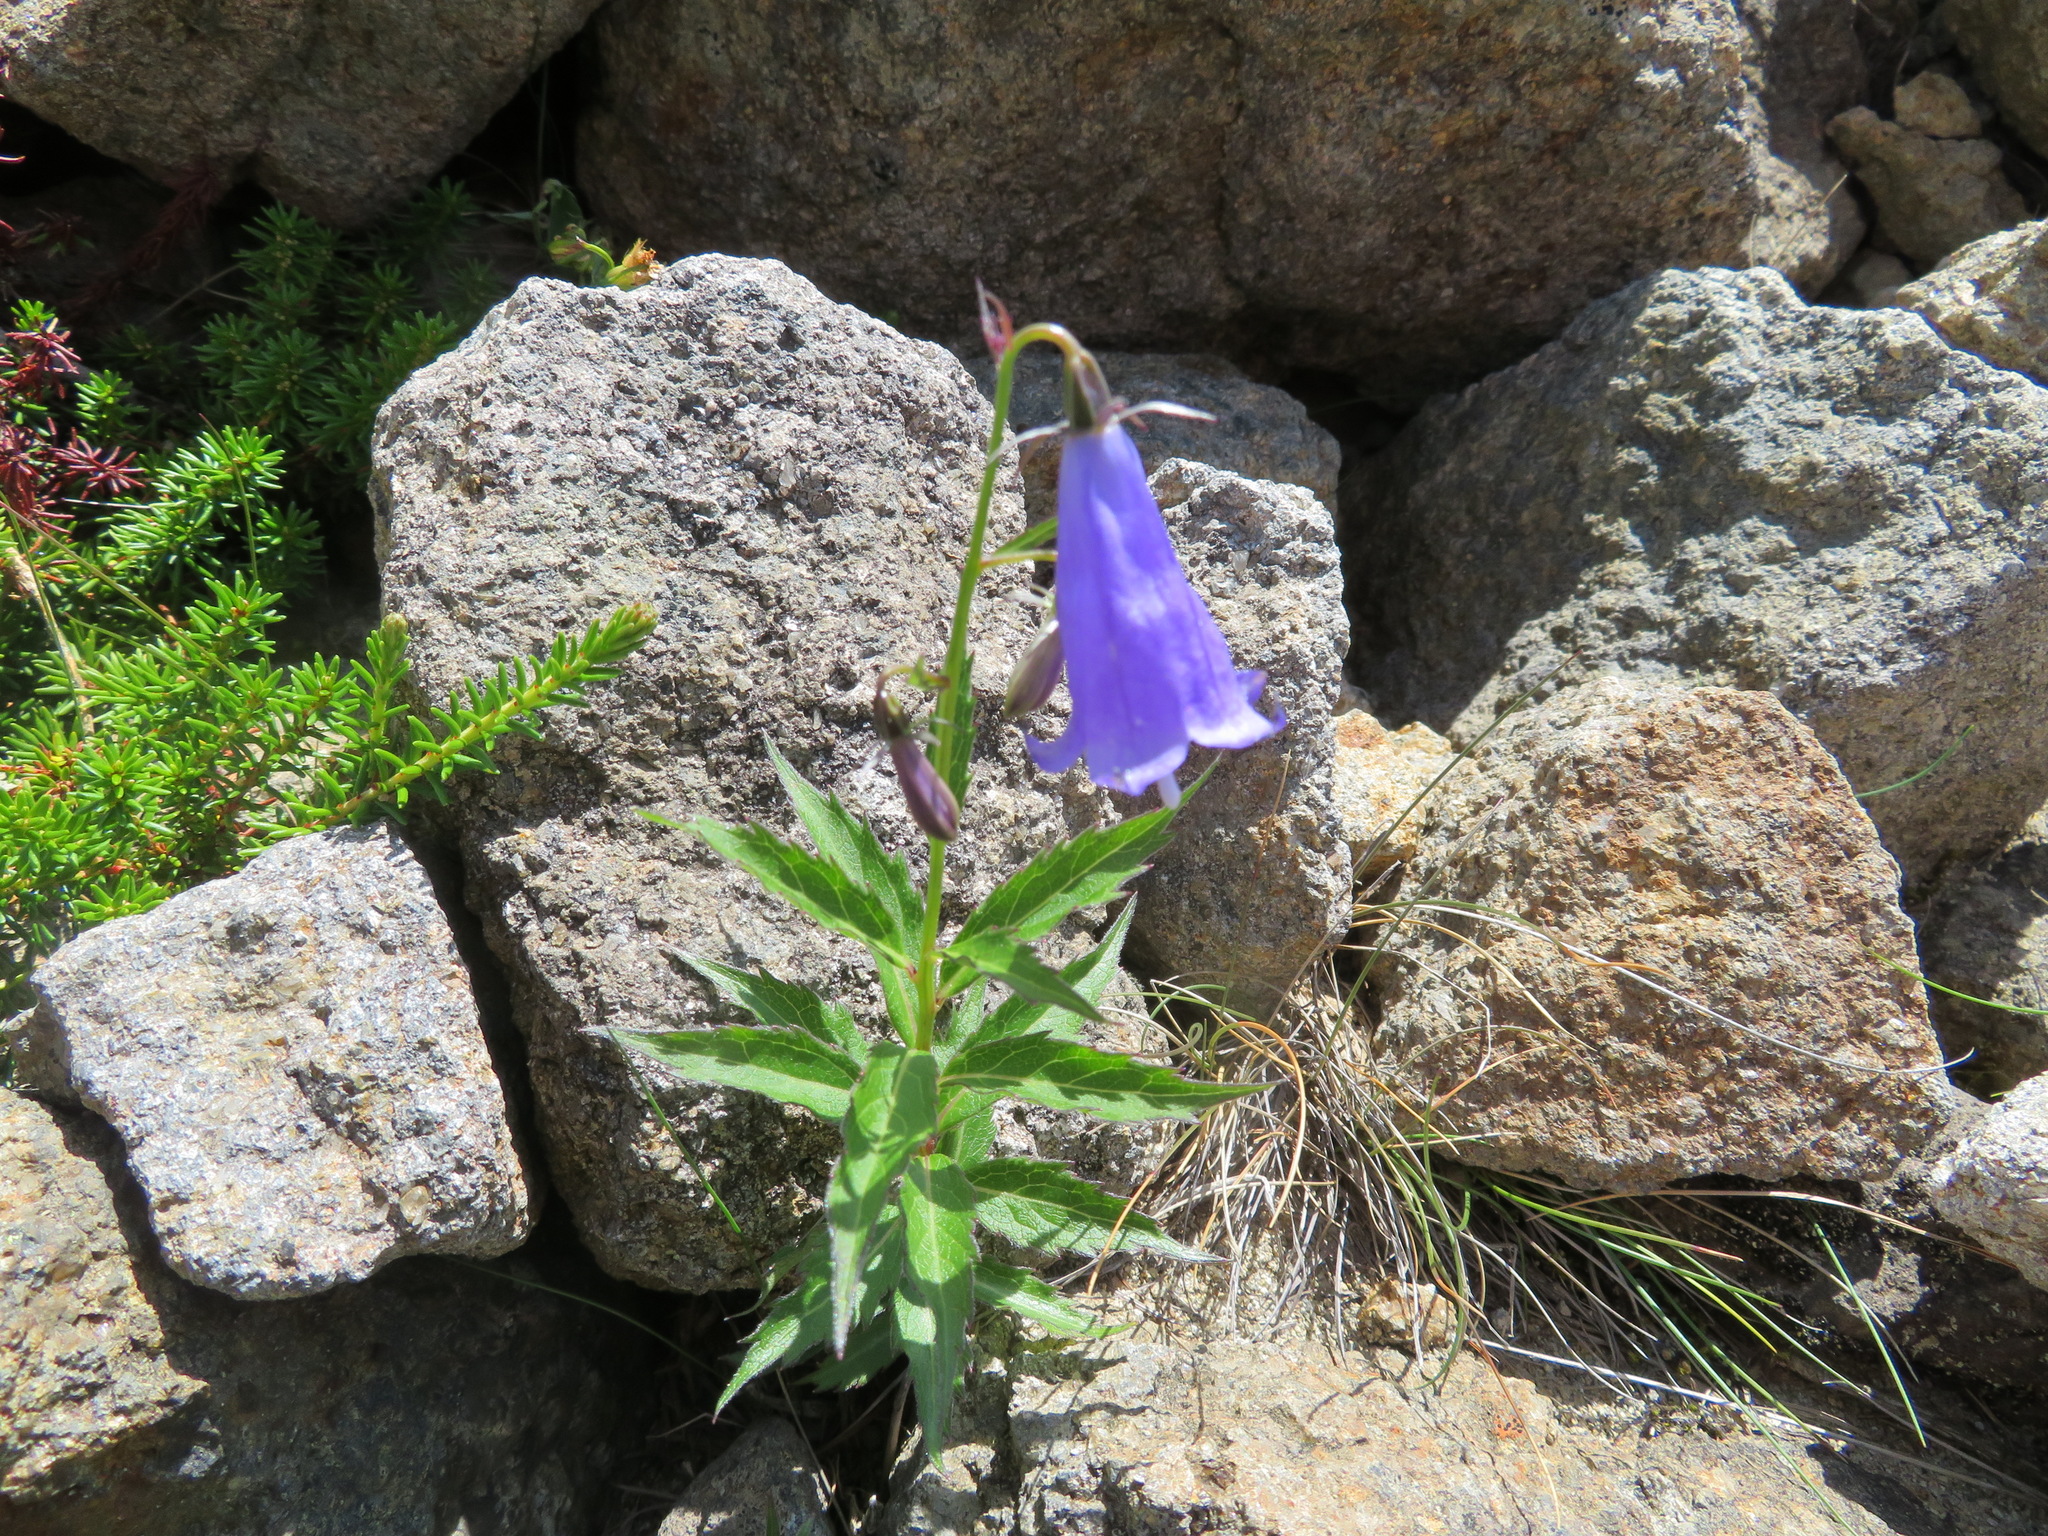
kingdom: Plantae
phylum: Tracheophyta
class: Magnoliopsida
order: Asterales
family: Campanulaceae
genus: Adenophora
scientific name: Adenophora nikoensis
